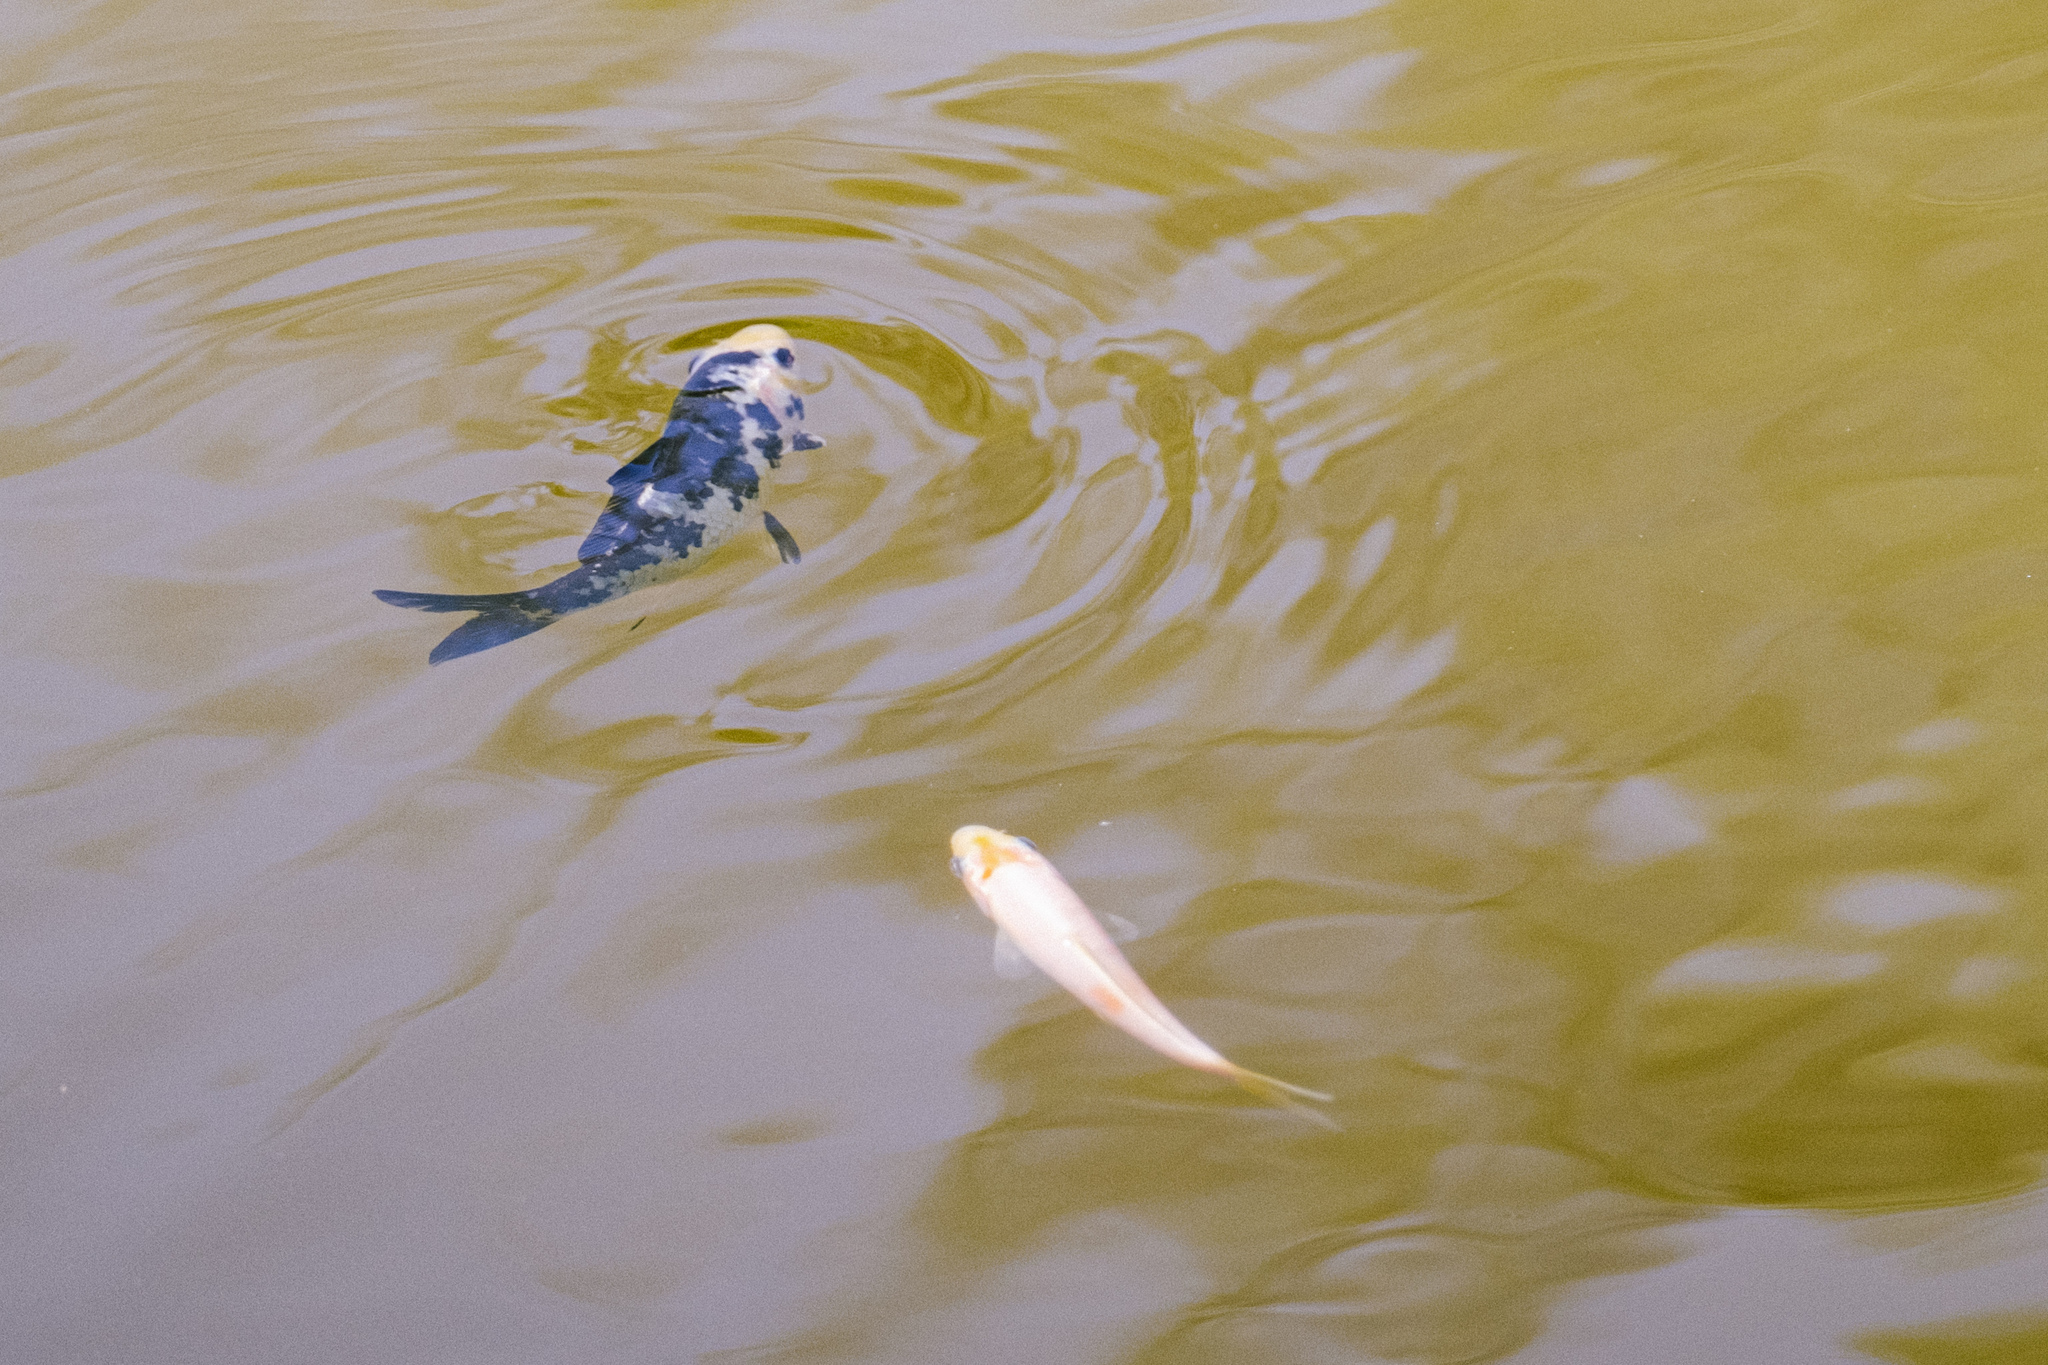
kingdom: Animalia
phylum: Chordata
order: Cypriniformes
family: Cyprinidae
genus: Cyprinus
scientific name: Cyprinus rubrofuscus
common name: Koi
